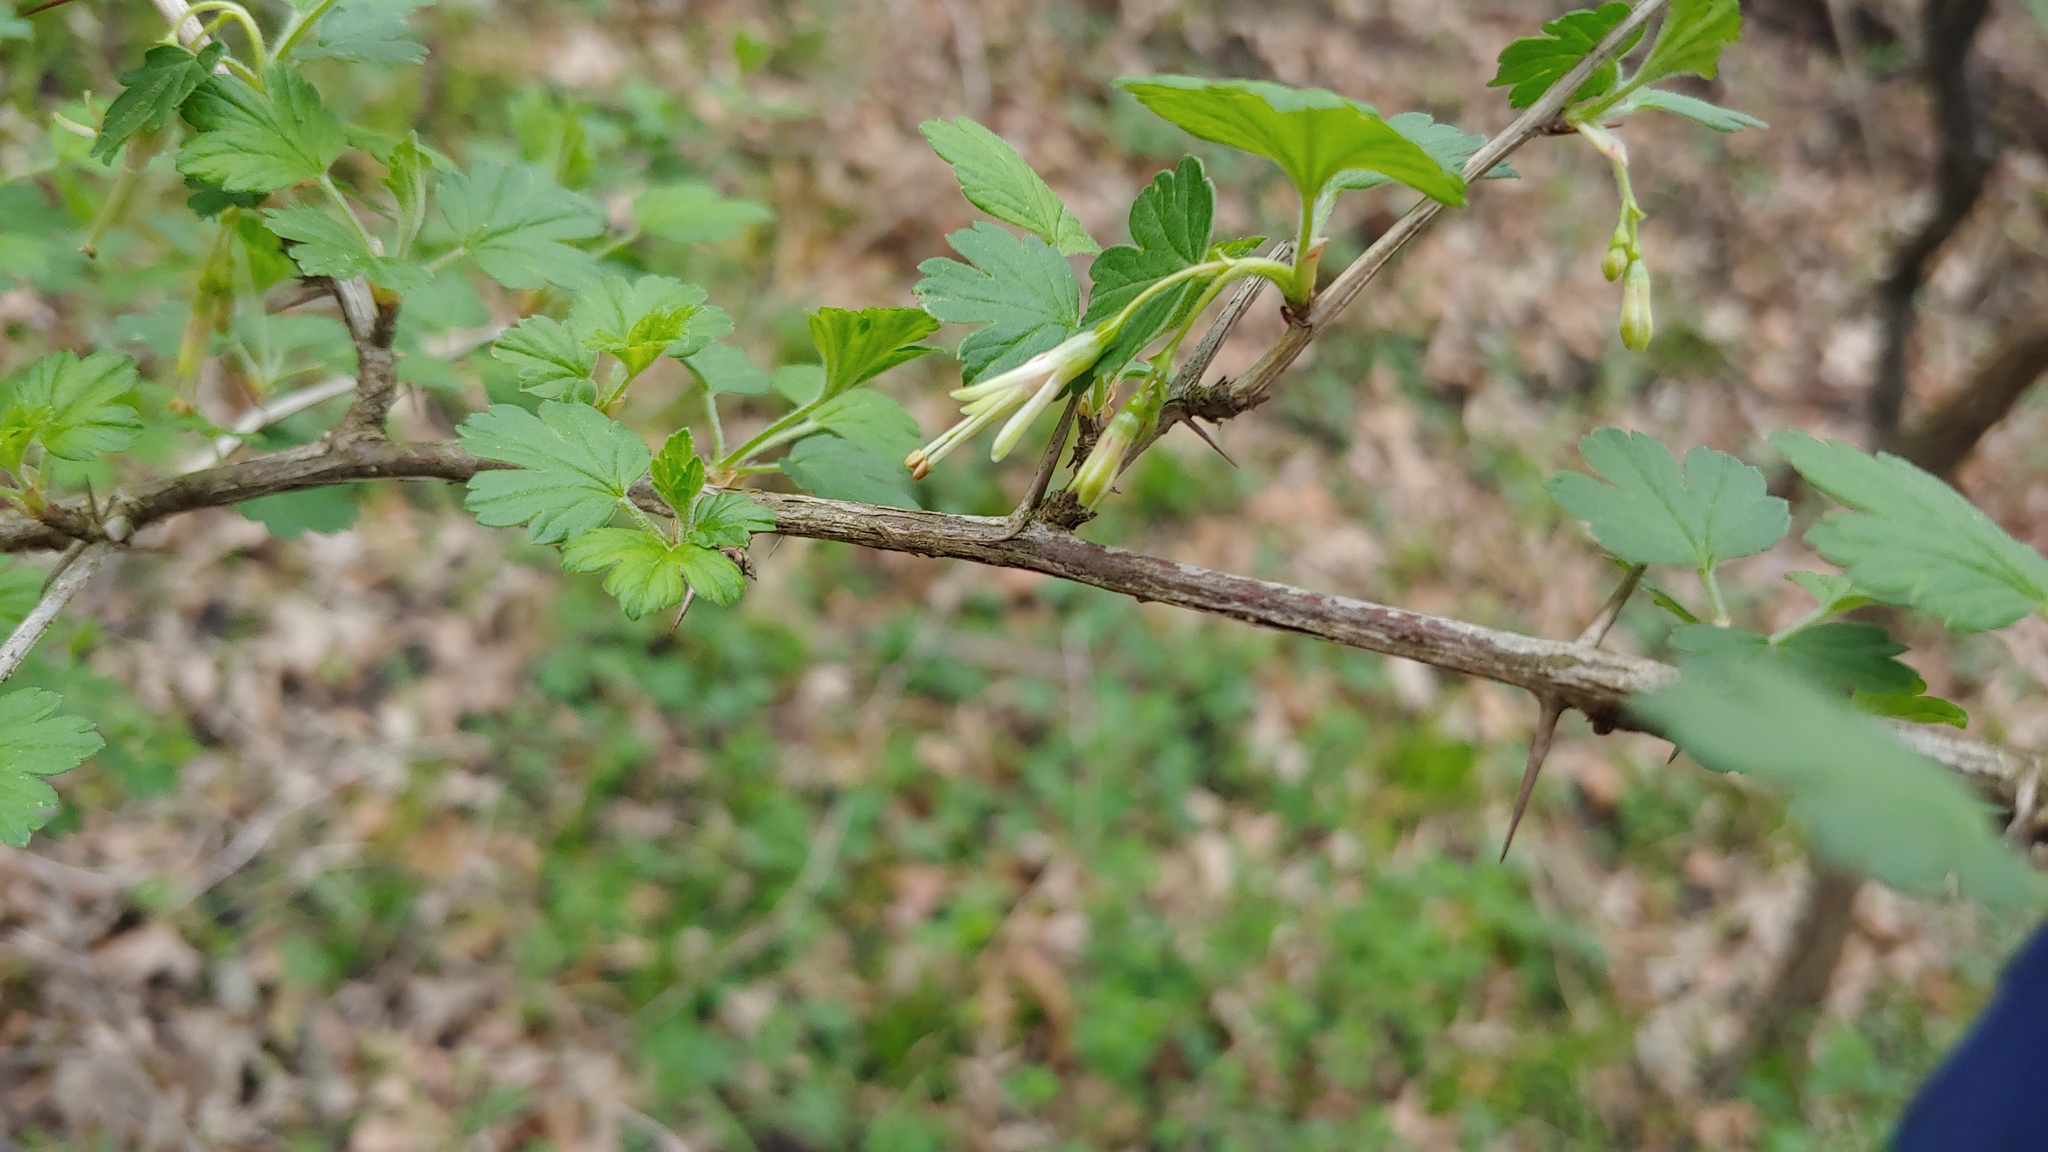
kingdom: Plantae
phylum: Tracheophyta
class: Magnoliopsida
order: Saxifragales
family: Grossulariaceae
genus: Ribes
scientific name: Ribes missouriense
